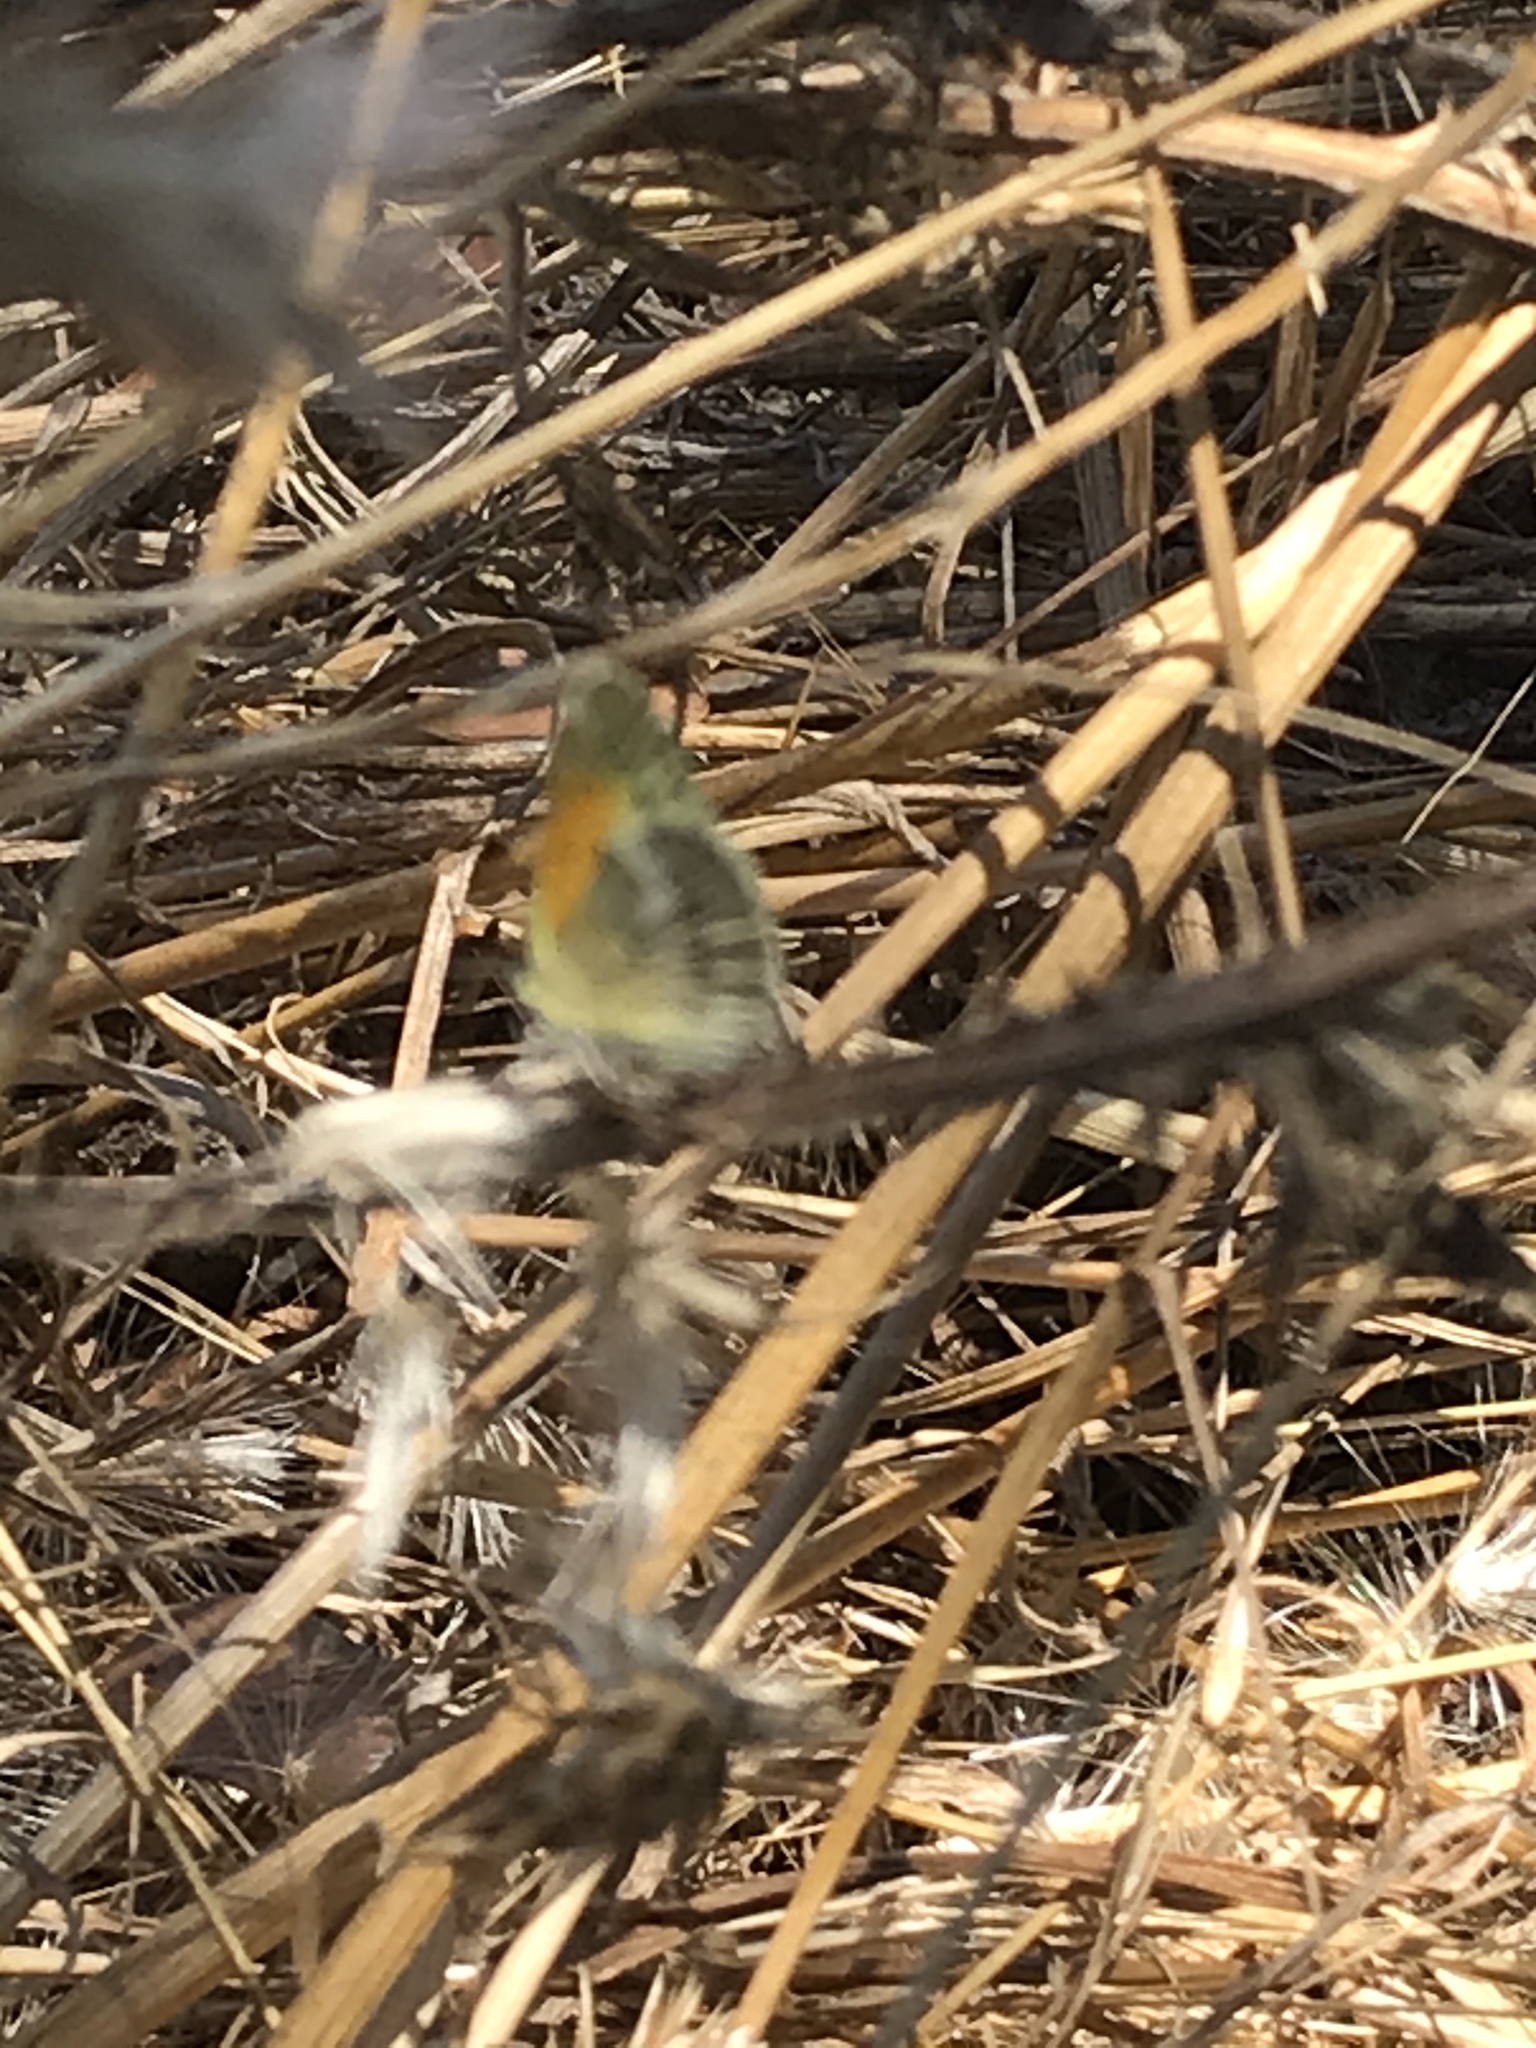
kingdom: Animalia
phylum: Arthropoda
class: Insecta
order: Lepidoptera
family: Pieridae
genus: Nathalis
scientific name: Nathalis iole
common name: Dainty sulphur
